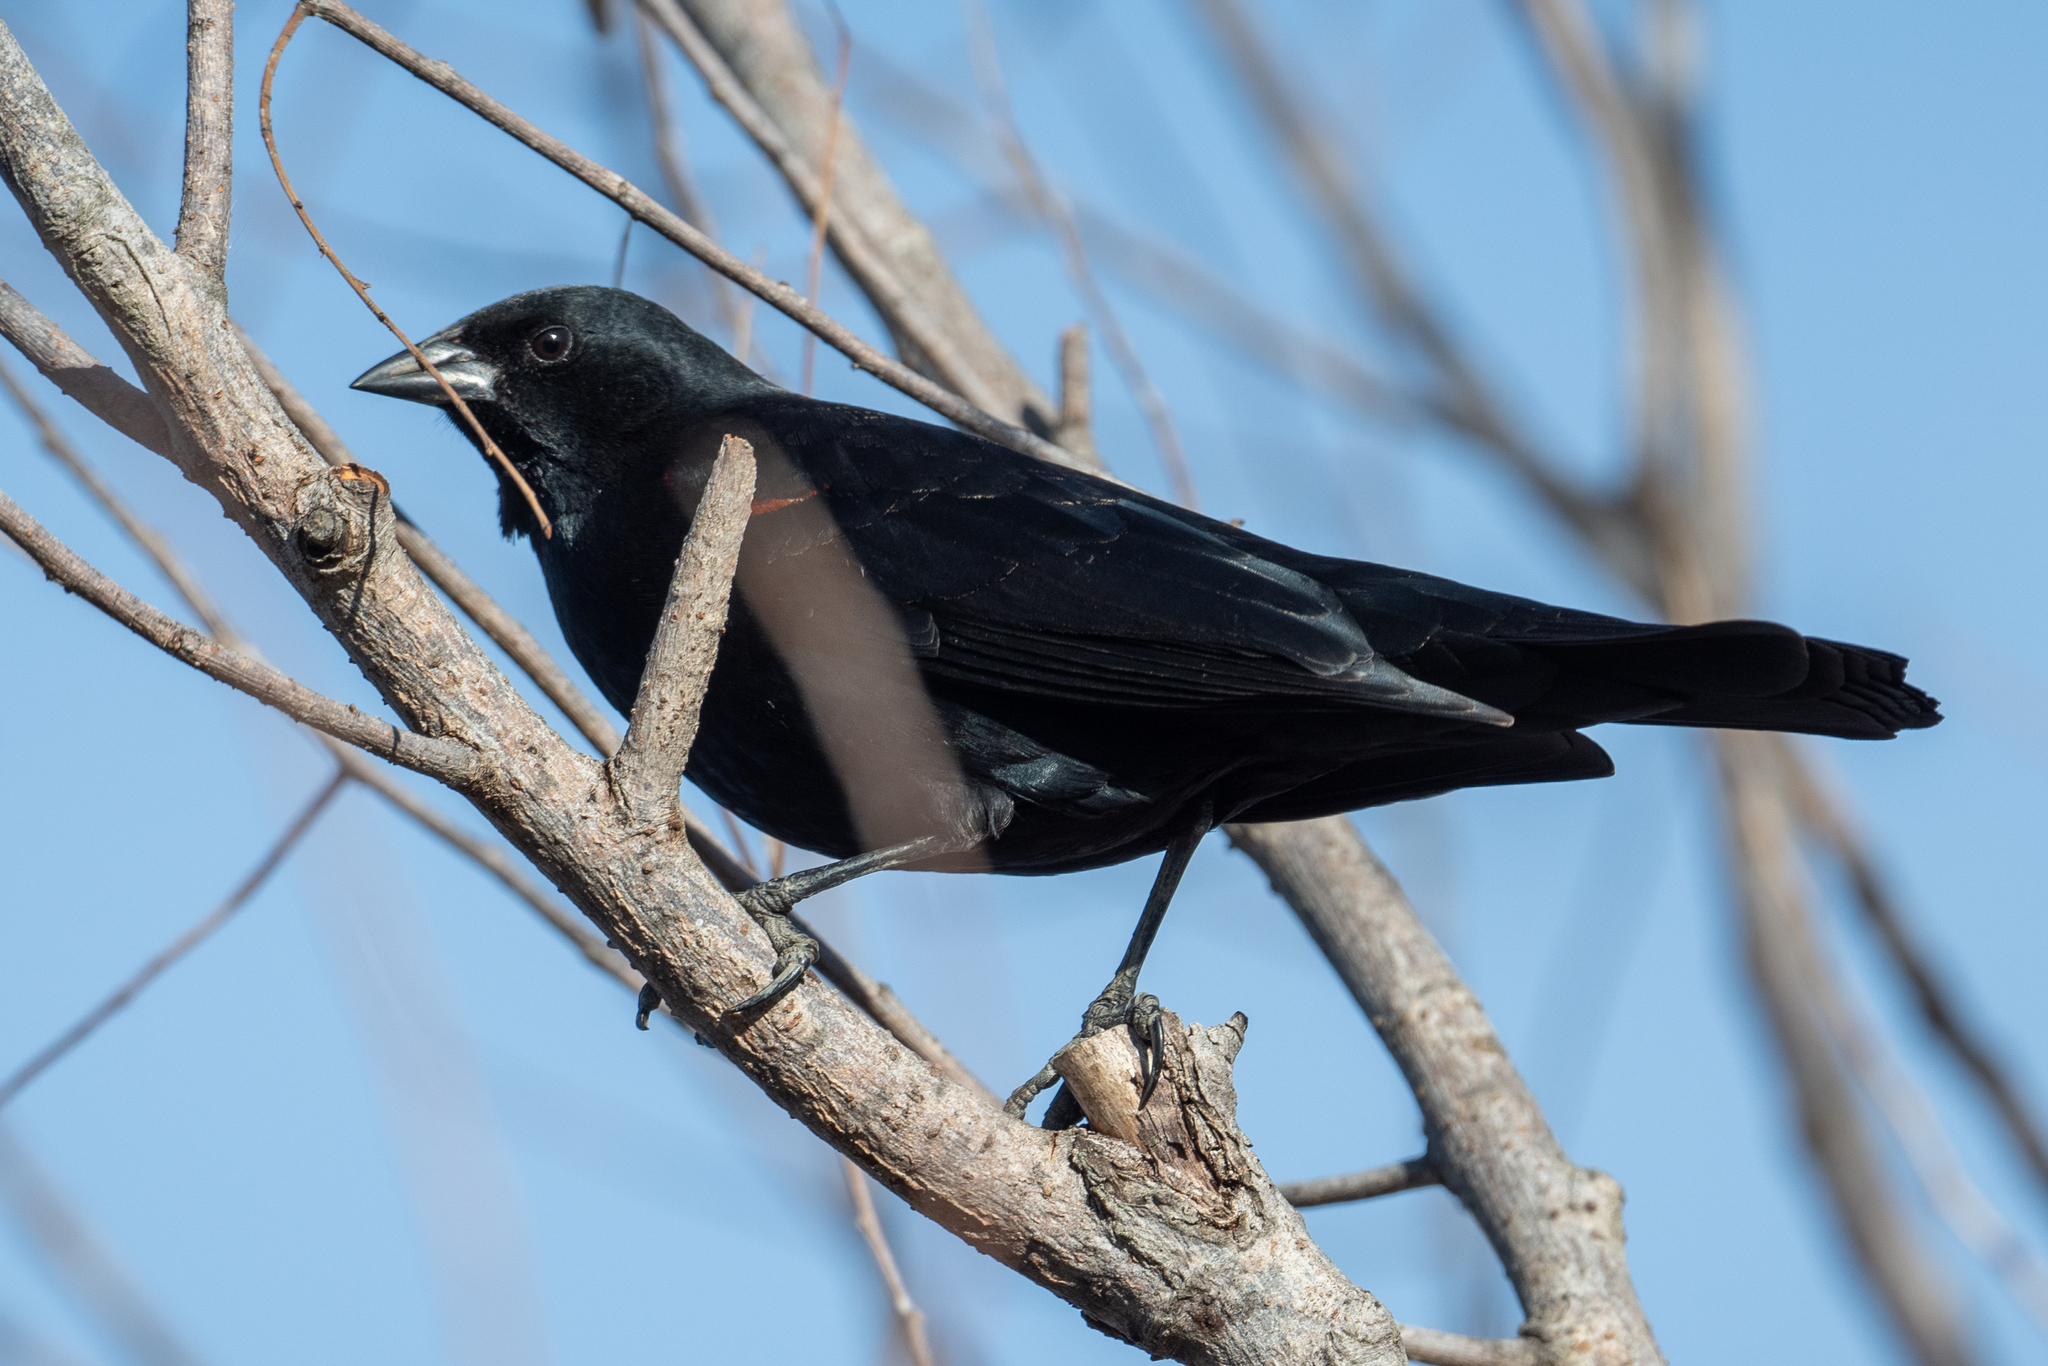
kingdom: Animalia
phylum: Chordata
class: Aves
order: Passeriformes
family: Icteridae
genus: Agelaius
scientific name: Agelaius phoeniceus
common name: Red-winged blackbird
